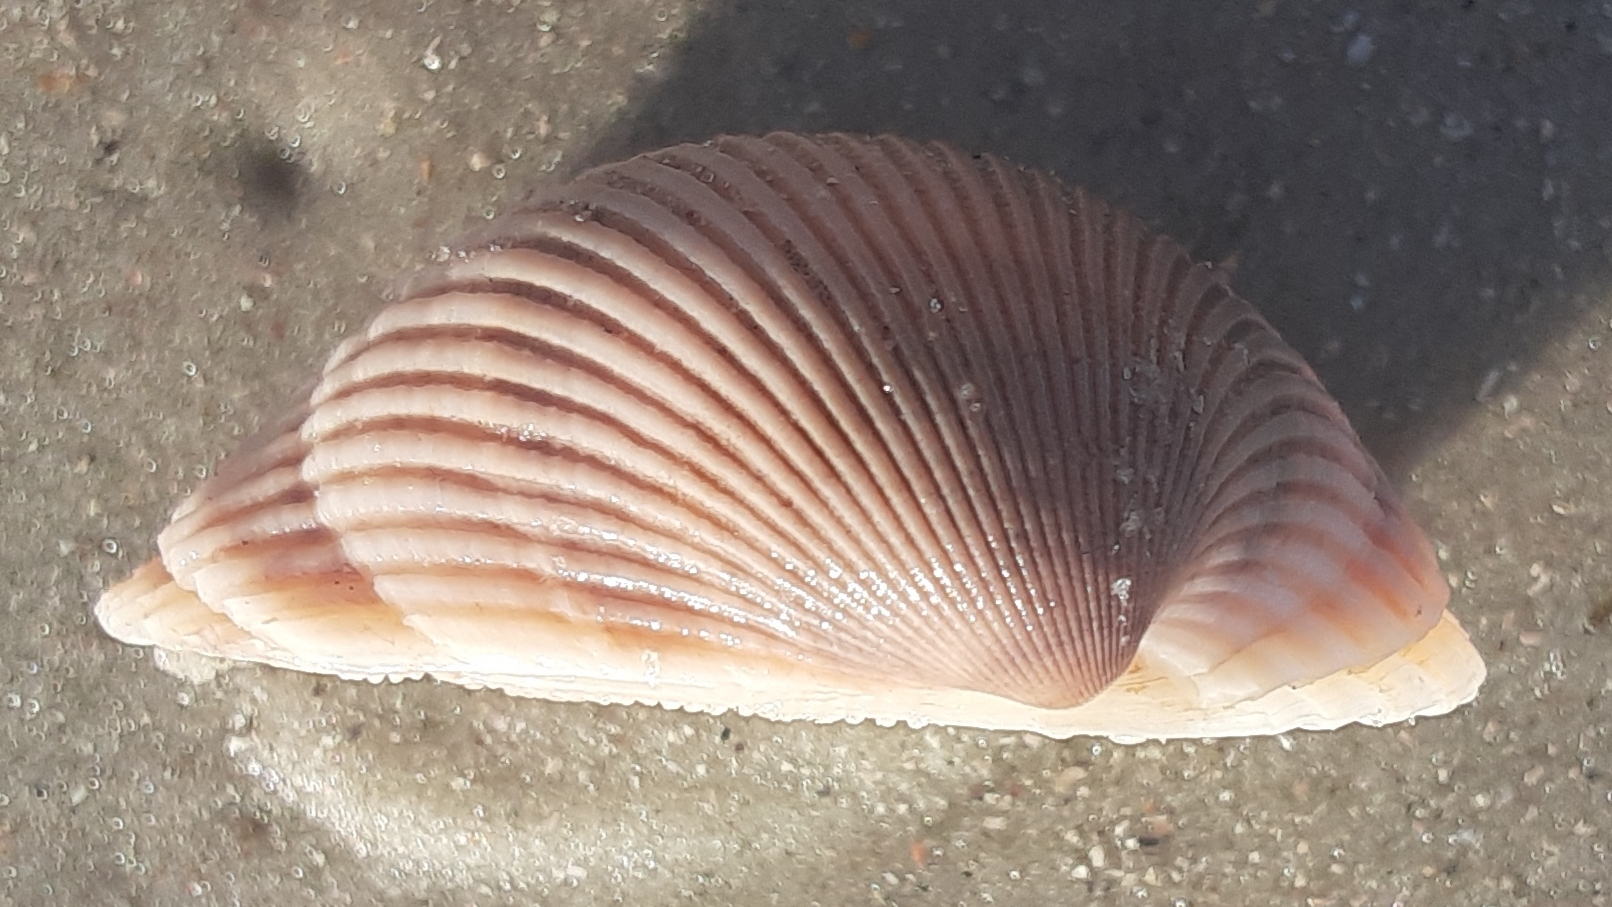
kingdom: Animalia
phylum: Mollusca
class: Bivalvia
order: Arcida
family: Arcidae
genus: Lunarca
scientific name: Lunarca ovalis
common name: Blood ark
